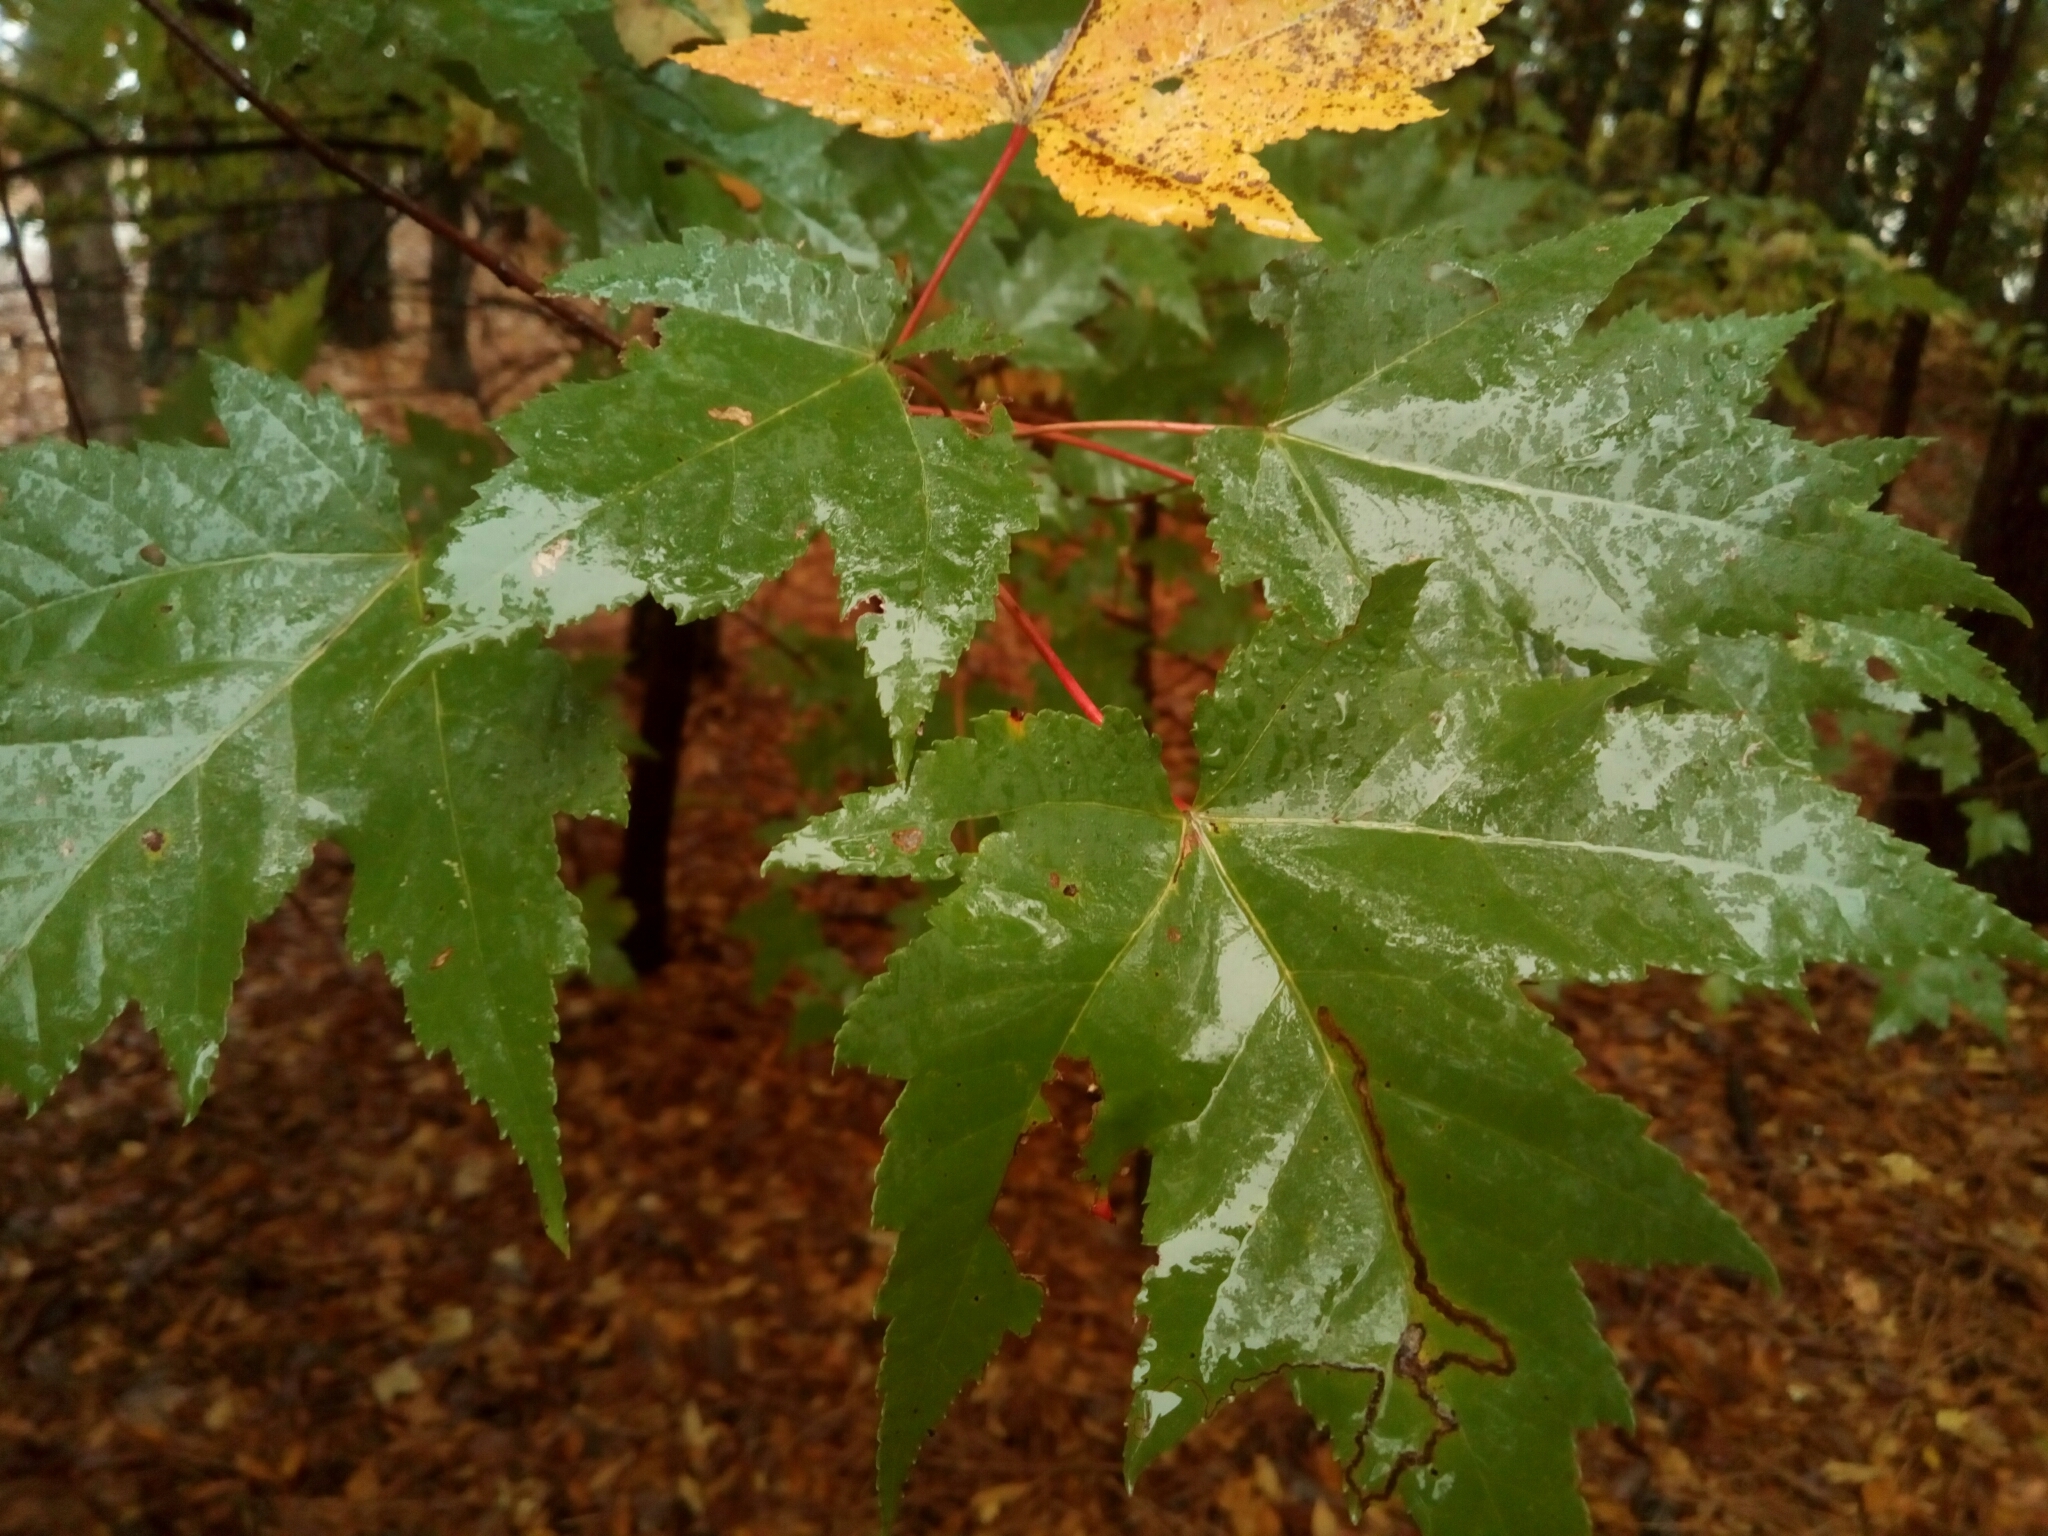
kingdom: Plantae
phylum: Tracheophyta
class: Magnoliopsida
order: Sapindales
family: Sapindaceae
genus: Acer
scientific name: Acer rubrum
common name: Red maple
